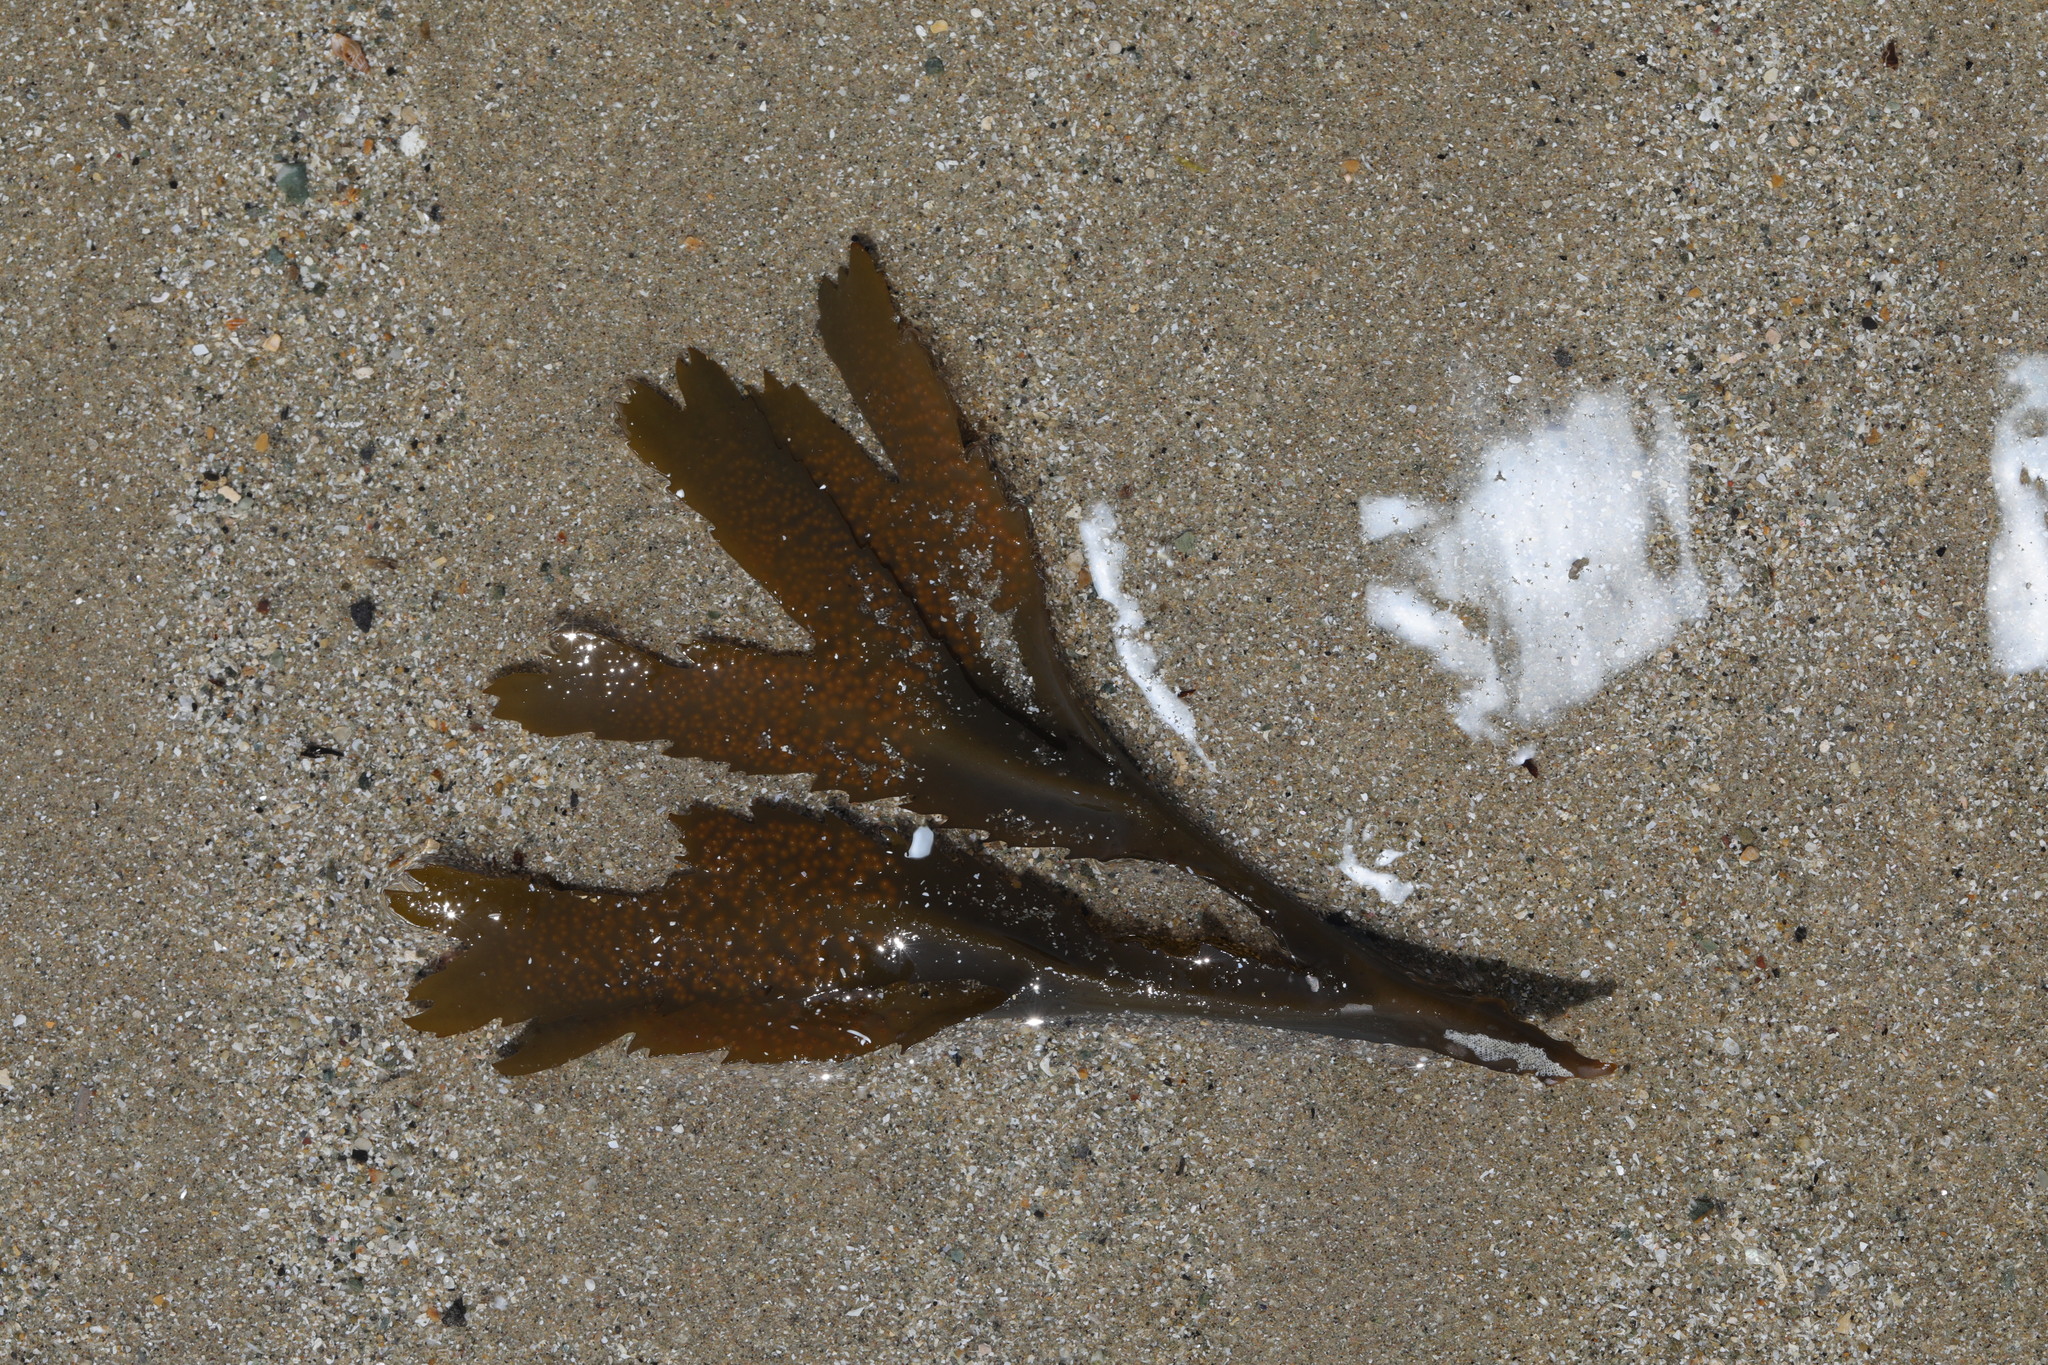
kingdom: Chromista
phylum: Ochrophyta
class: Phaeophyceae
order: Fucales
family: Fucaceae
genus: Fucus
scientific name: Fucus serratus
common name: Toothed wrack
